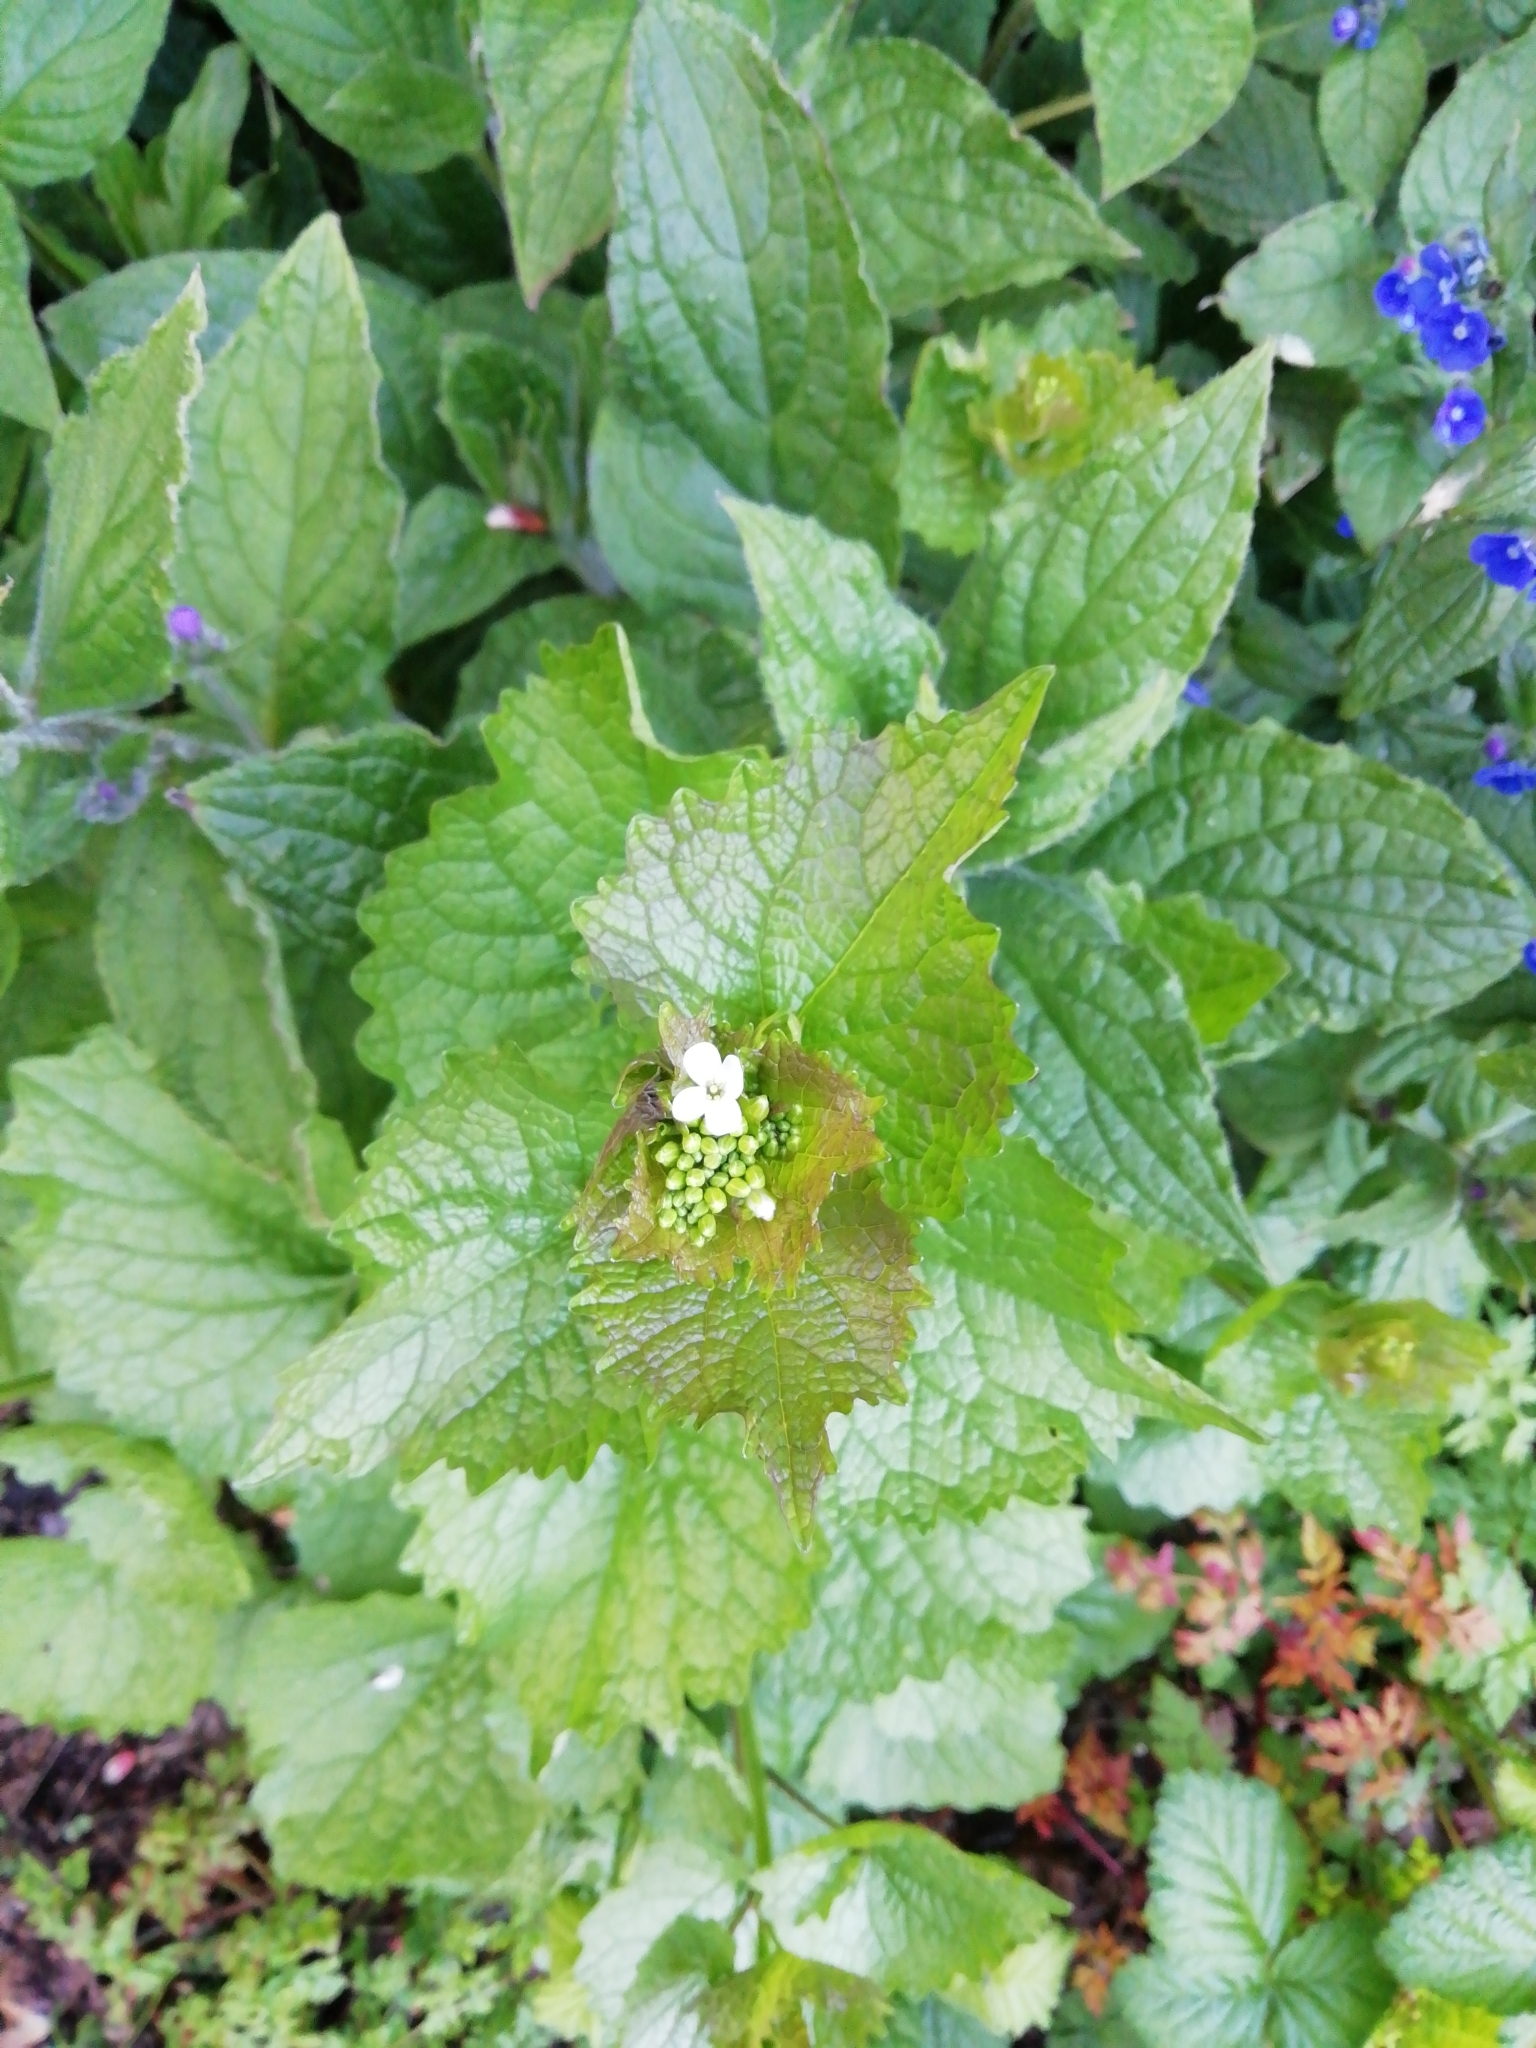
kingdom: Plantae
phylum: Tracheophyta
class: Magnoliopsida
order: Brassicales
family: Brassicaceae
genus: Alliaria
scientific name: Alliaria petiolata
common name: Garlic mustard
